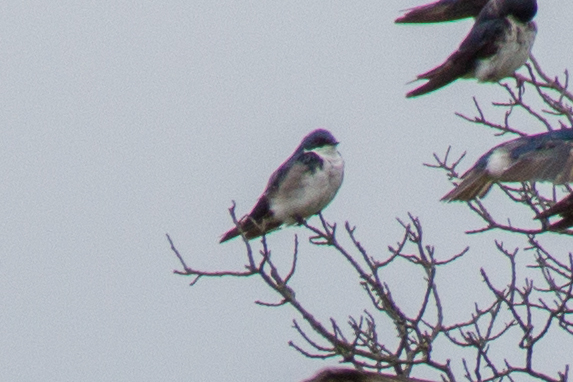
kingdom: Animalia
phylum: Chordata
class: Aves
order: Passeriformes
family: Hirundinidae
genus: Tachycineta
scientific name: Tachycineta bicolor
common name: Tree swallow
